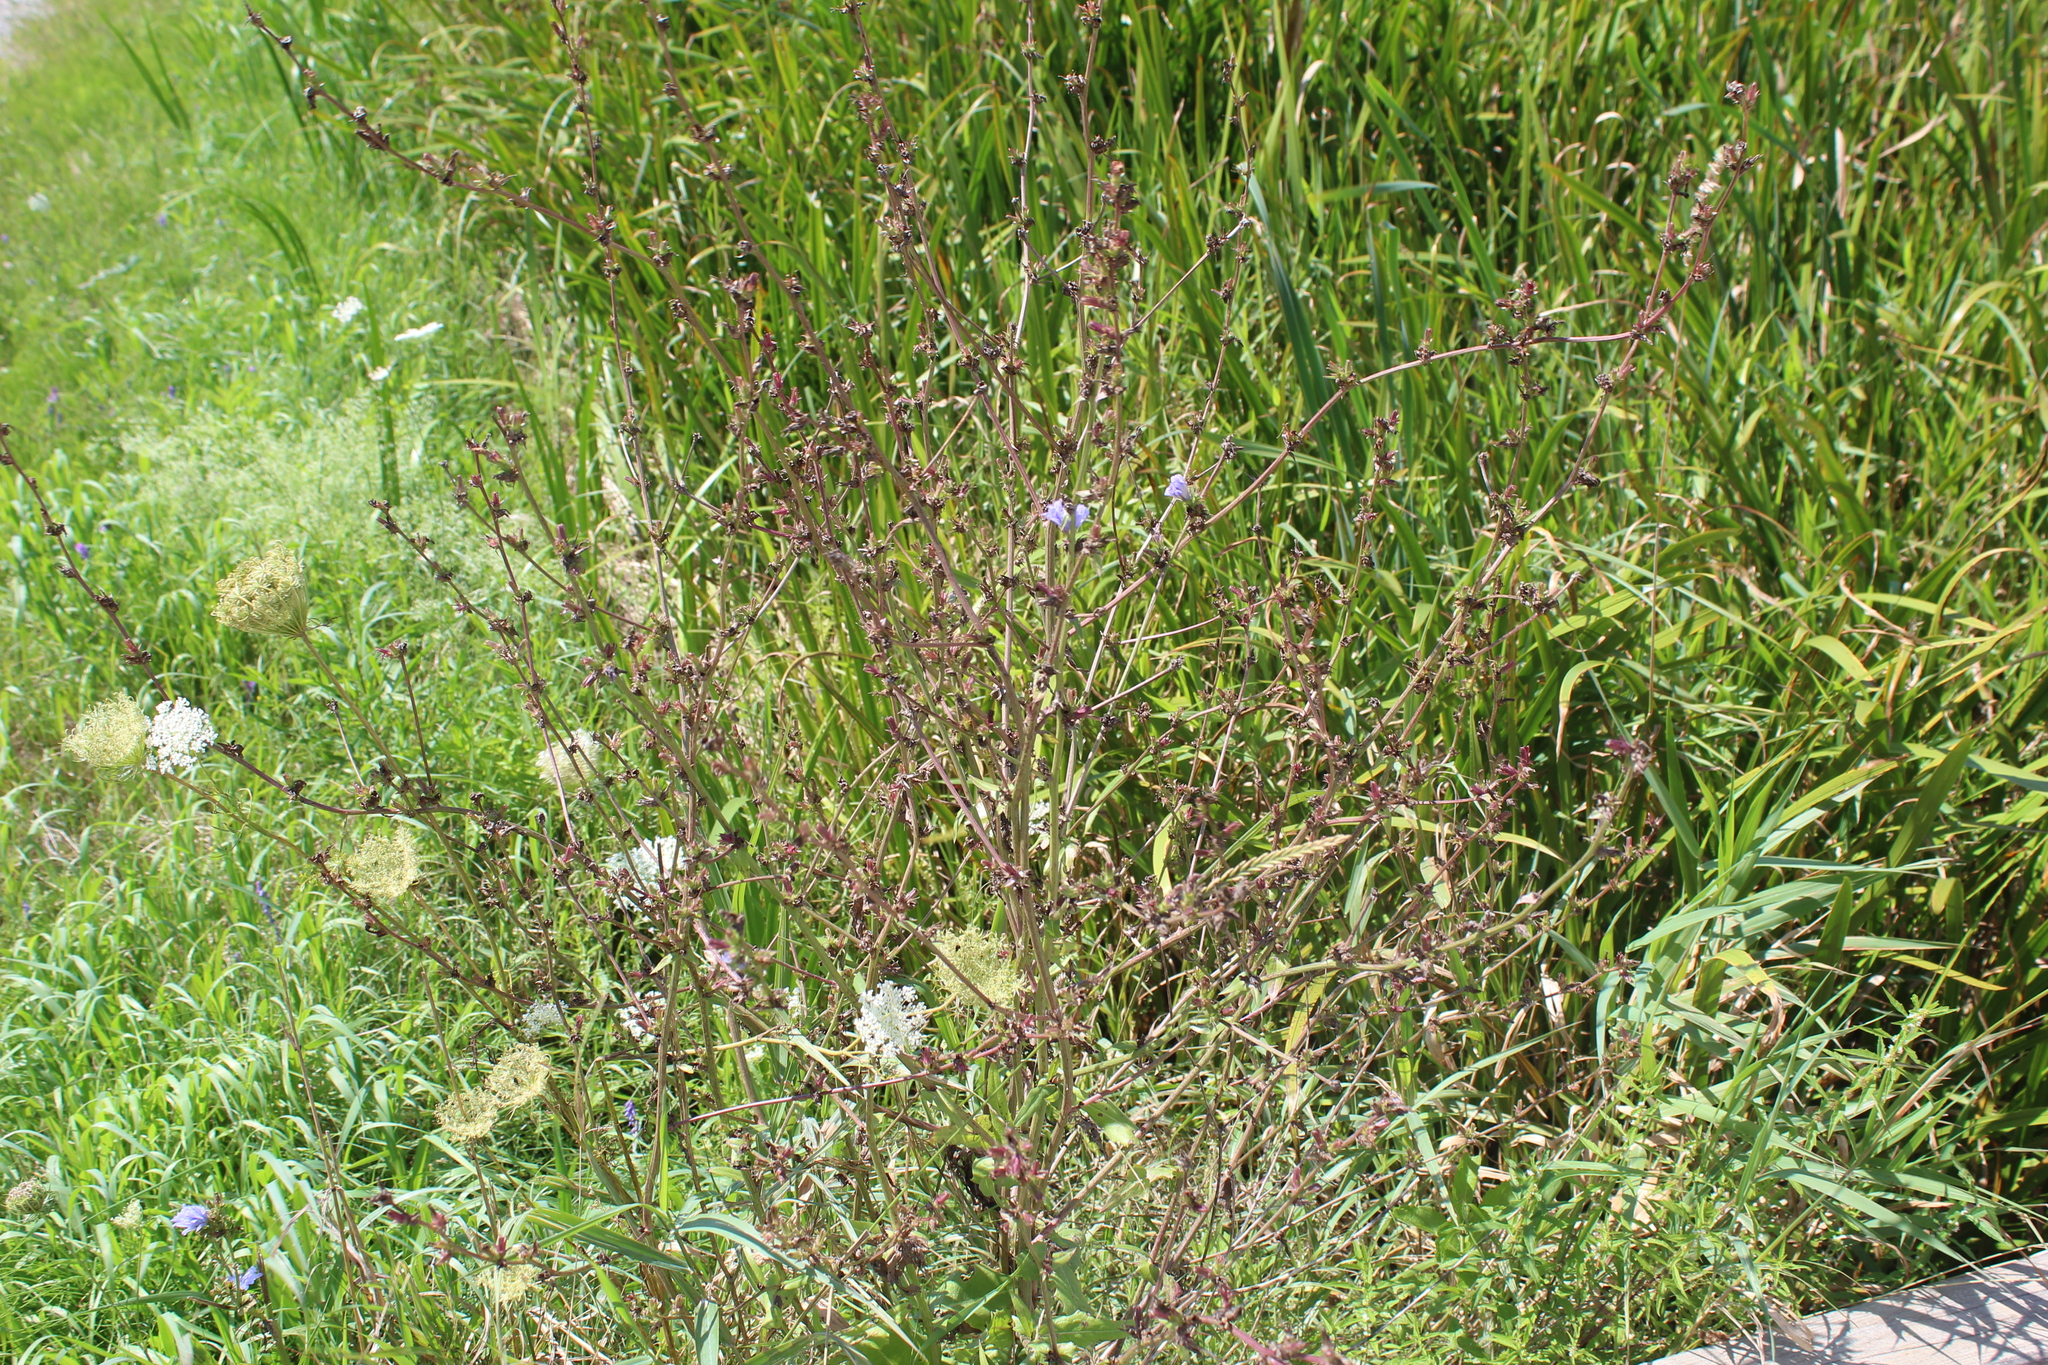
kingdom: Plantae
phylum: Tracheophyta
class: Magnoliopsida
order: Asterales
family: Asteraceae
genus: Cichorium
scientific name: Cichorium intybus
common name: Chicory
